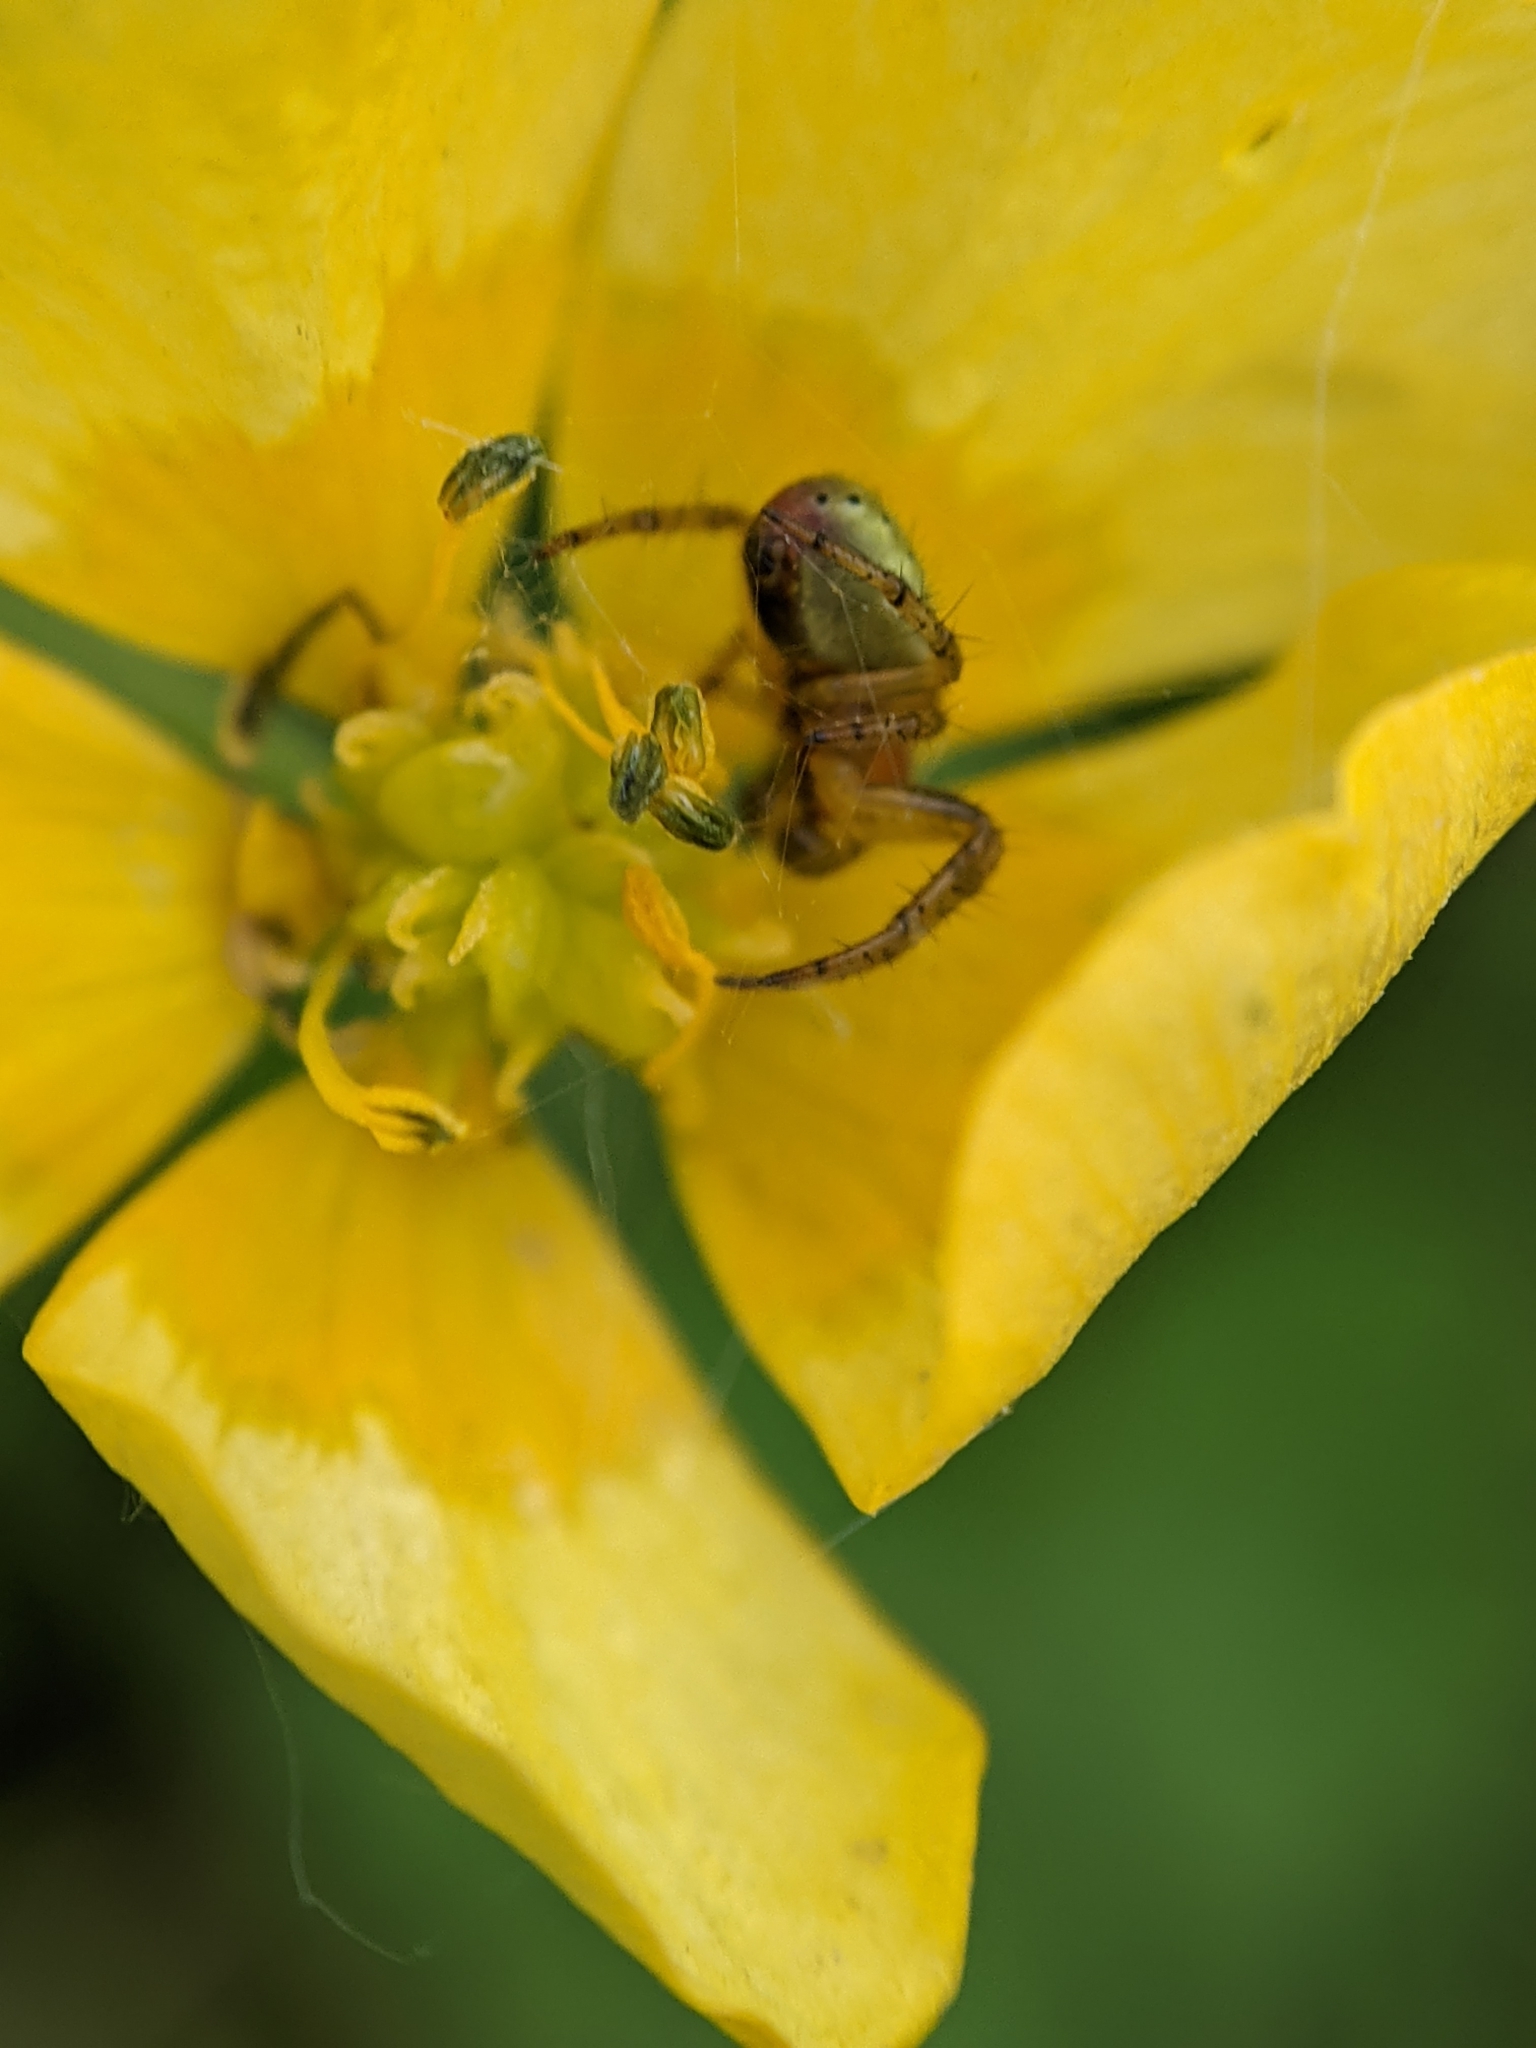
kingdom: Animalia
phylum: Arthropoda
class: Arachnida
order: Araneae
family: Araneidae
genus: Araniella
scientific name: Araniella opisthographa
